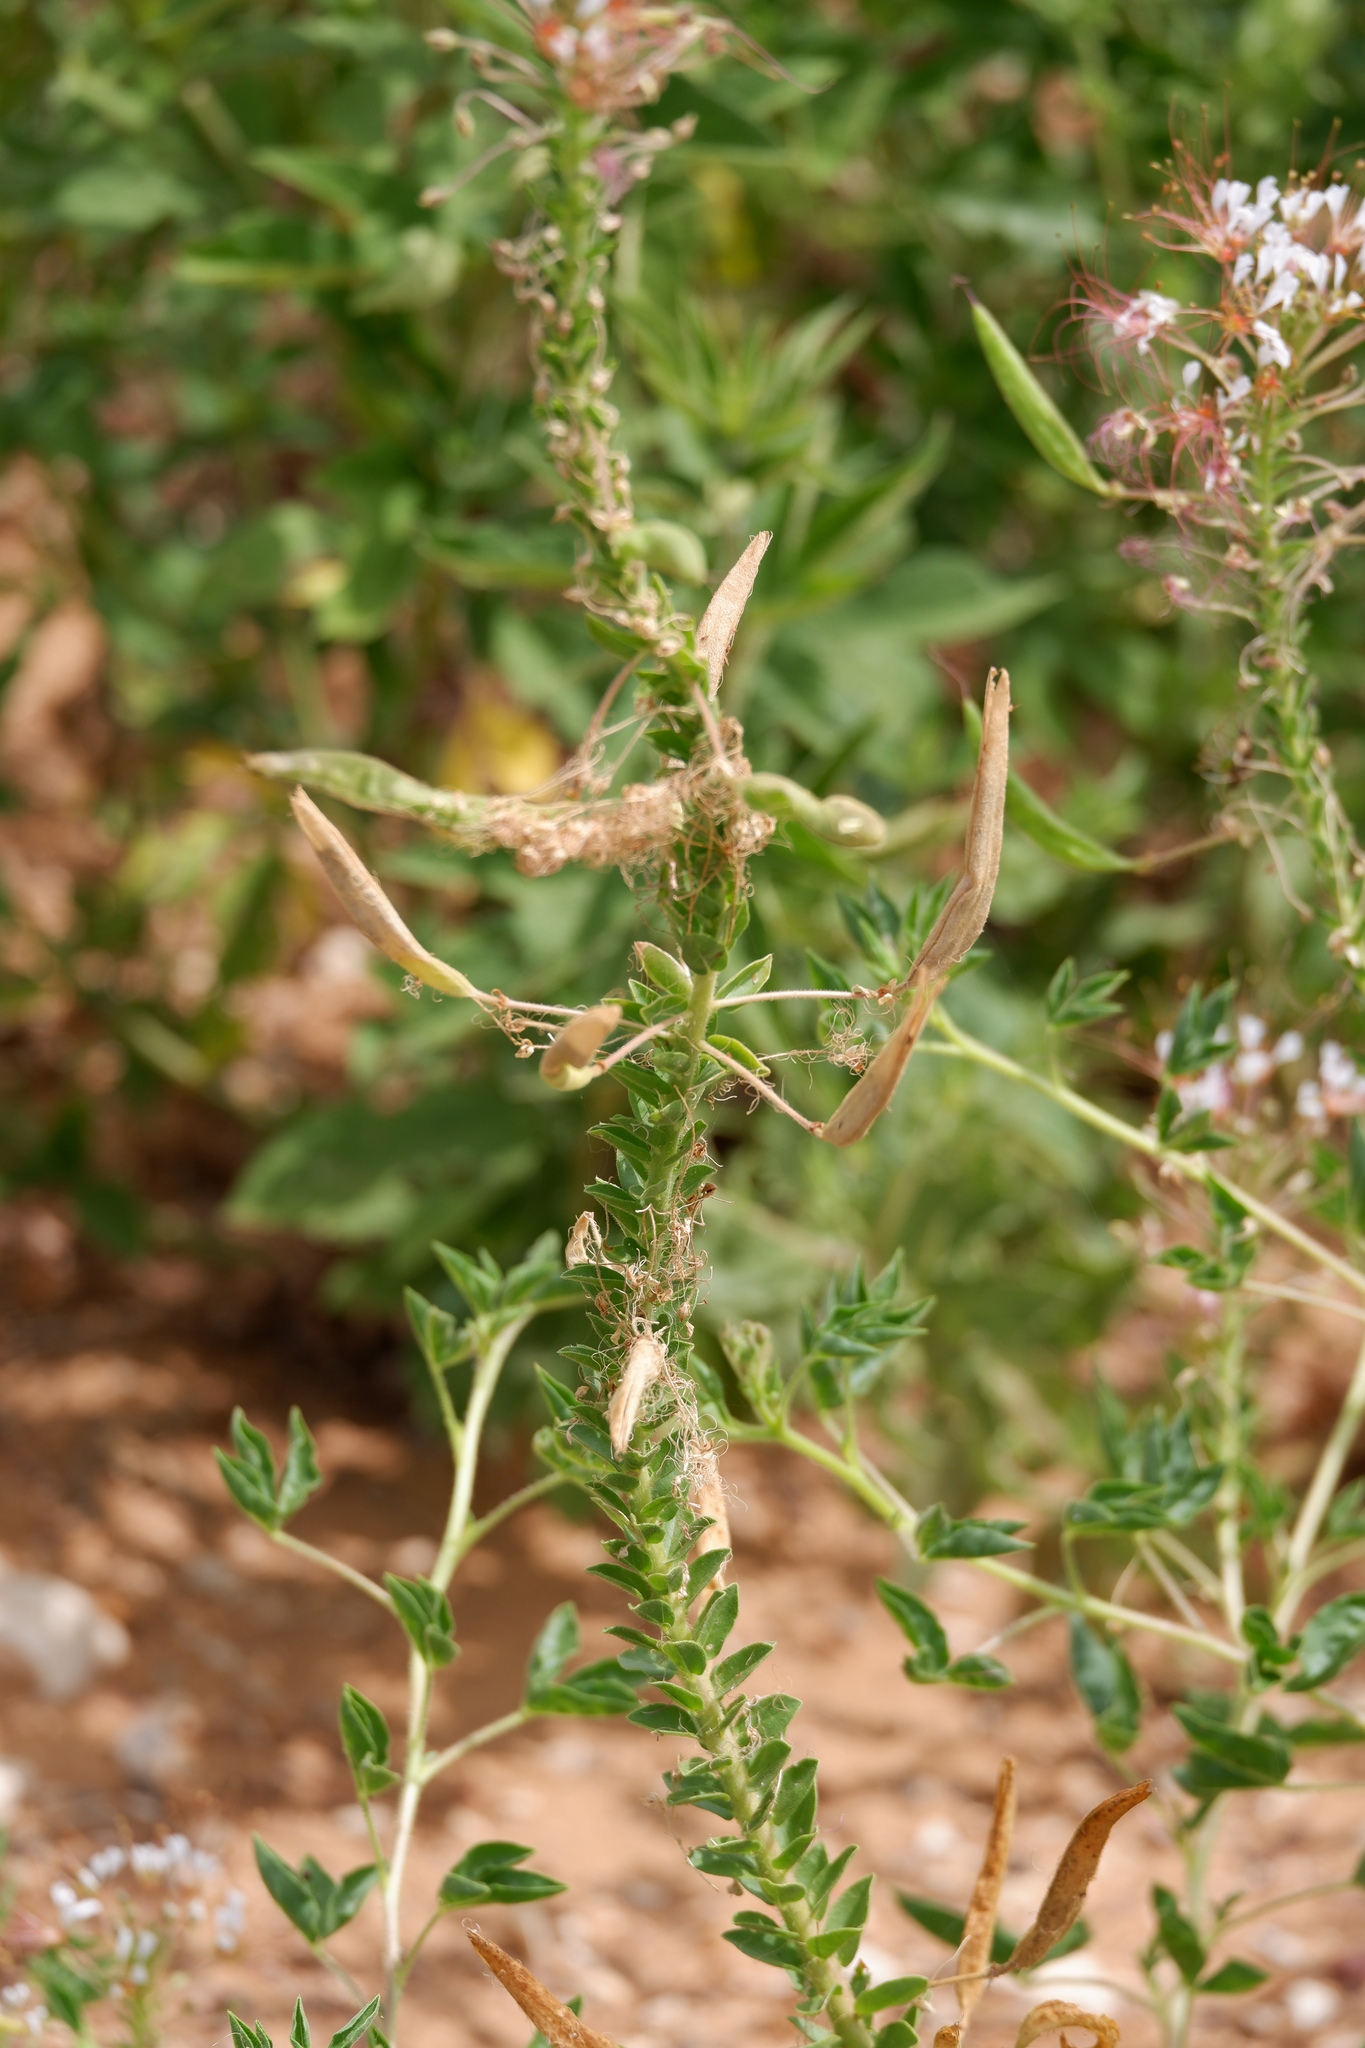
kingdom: Plantae
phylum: Tracheophyta
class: Magnoliopsida
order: Brassicales
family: Cleomaceae
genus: Polanisia
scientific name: Polanisia dodecandra
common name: Clammyweed
